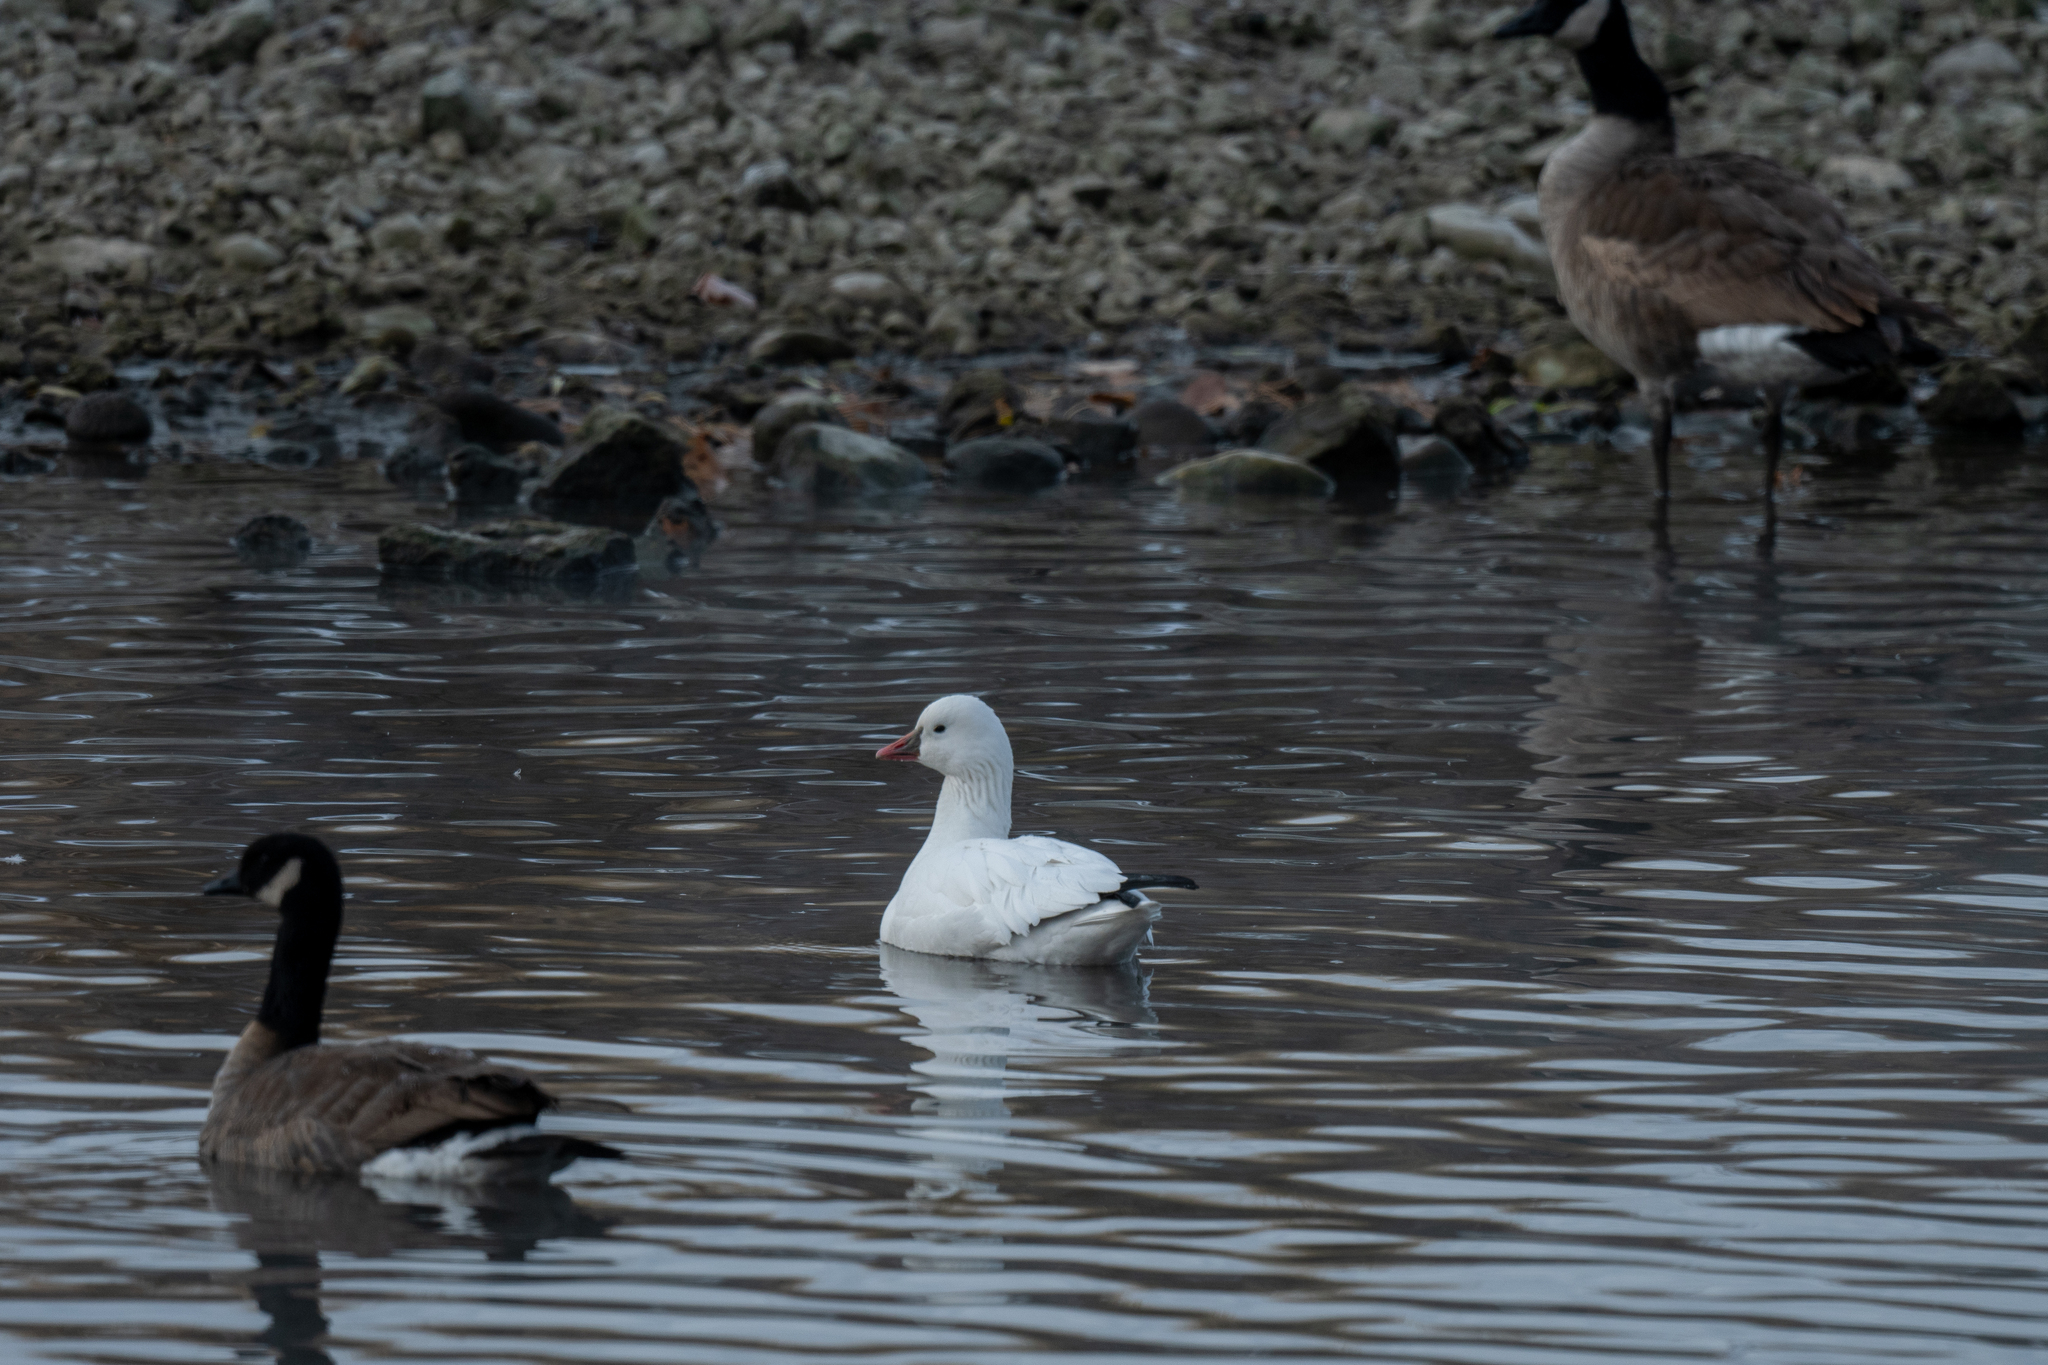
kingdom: Animalia
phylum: Chordata
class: Aves
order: Anseriformes
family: Anatidae
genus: Anser
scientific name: Anser rossii
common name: Ross's goose
